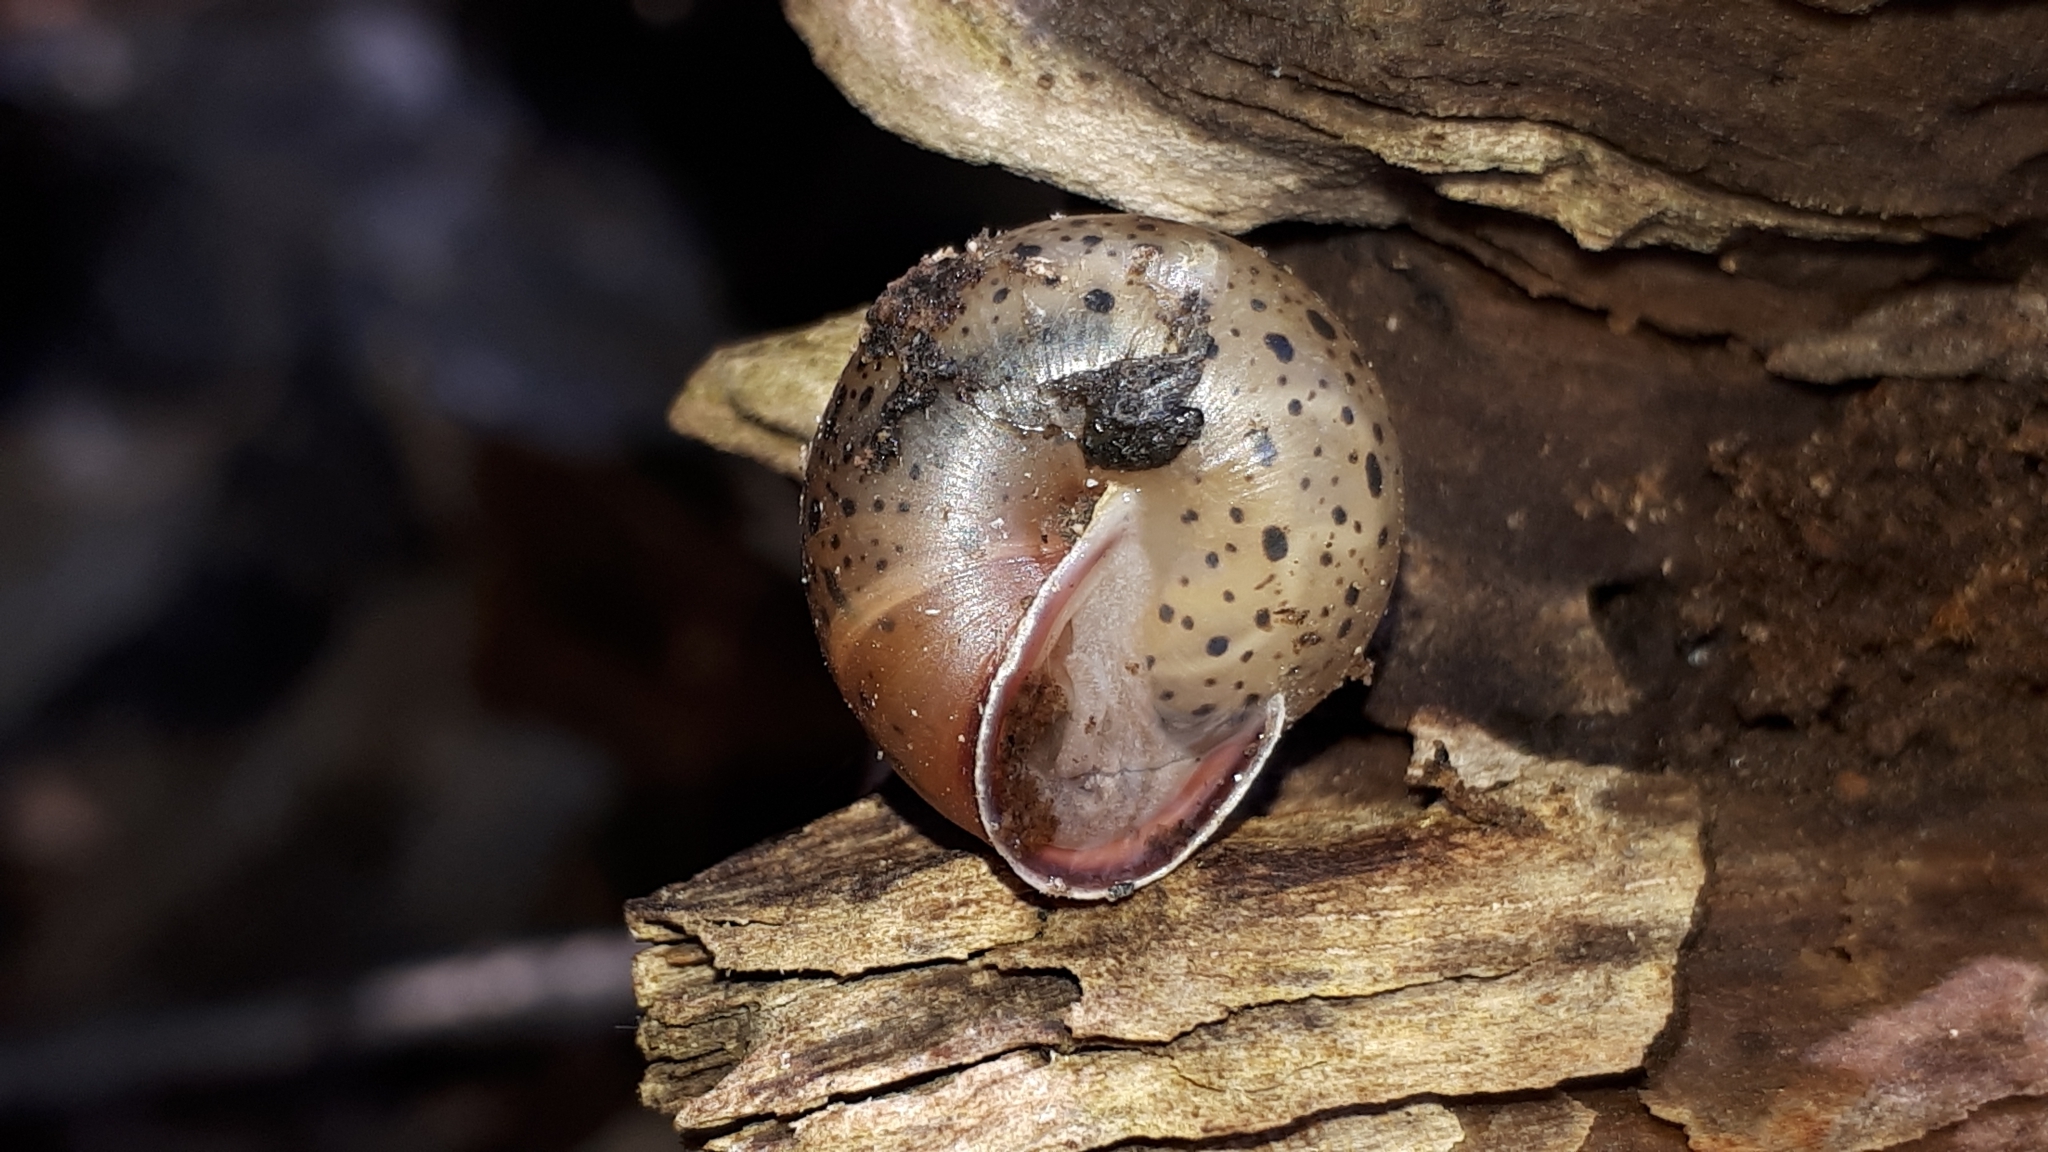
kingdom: Animalia
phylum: Mollusca
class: Gastropoda
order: Stylommatophora
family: Hygromiidae
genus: Monachoides
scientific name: Monachoides incarnatus
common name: Incarnate snail
